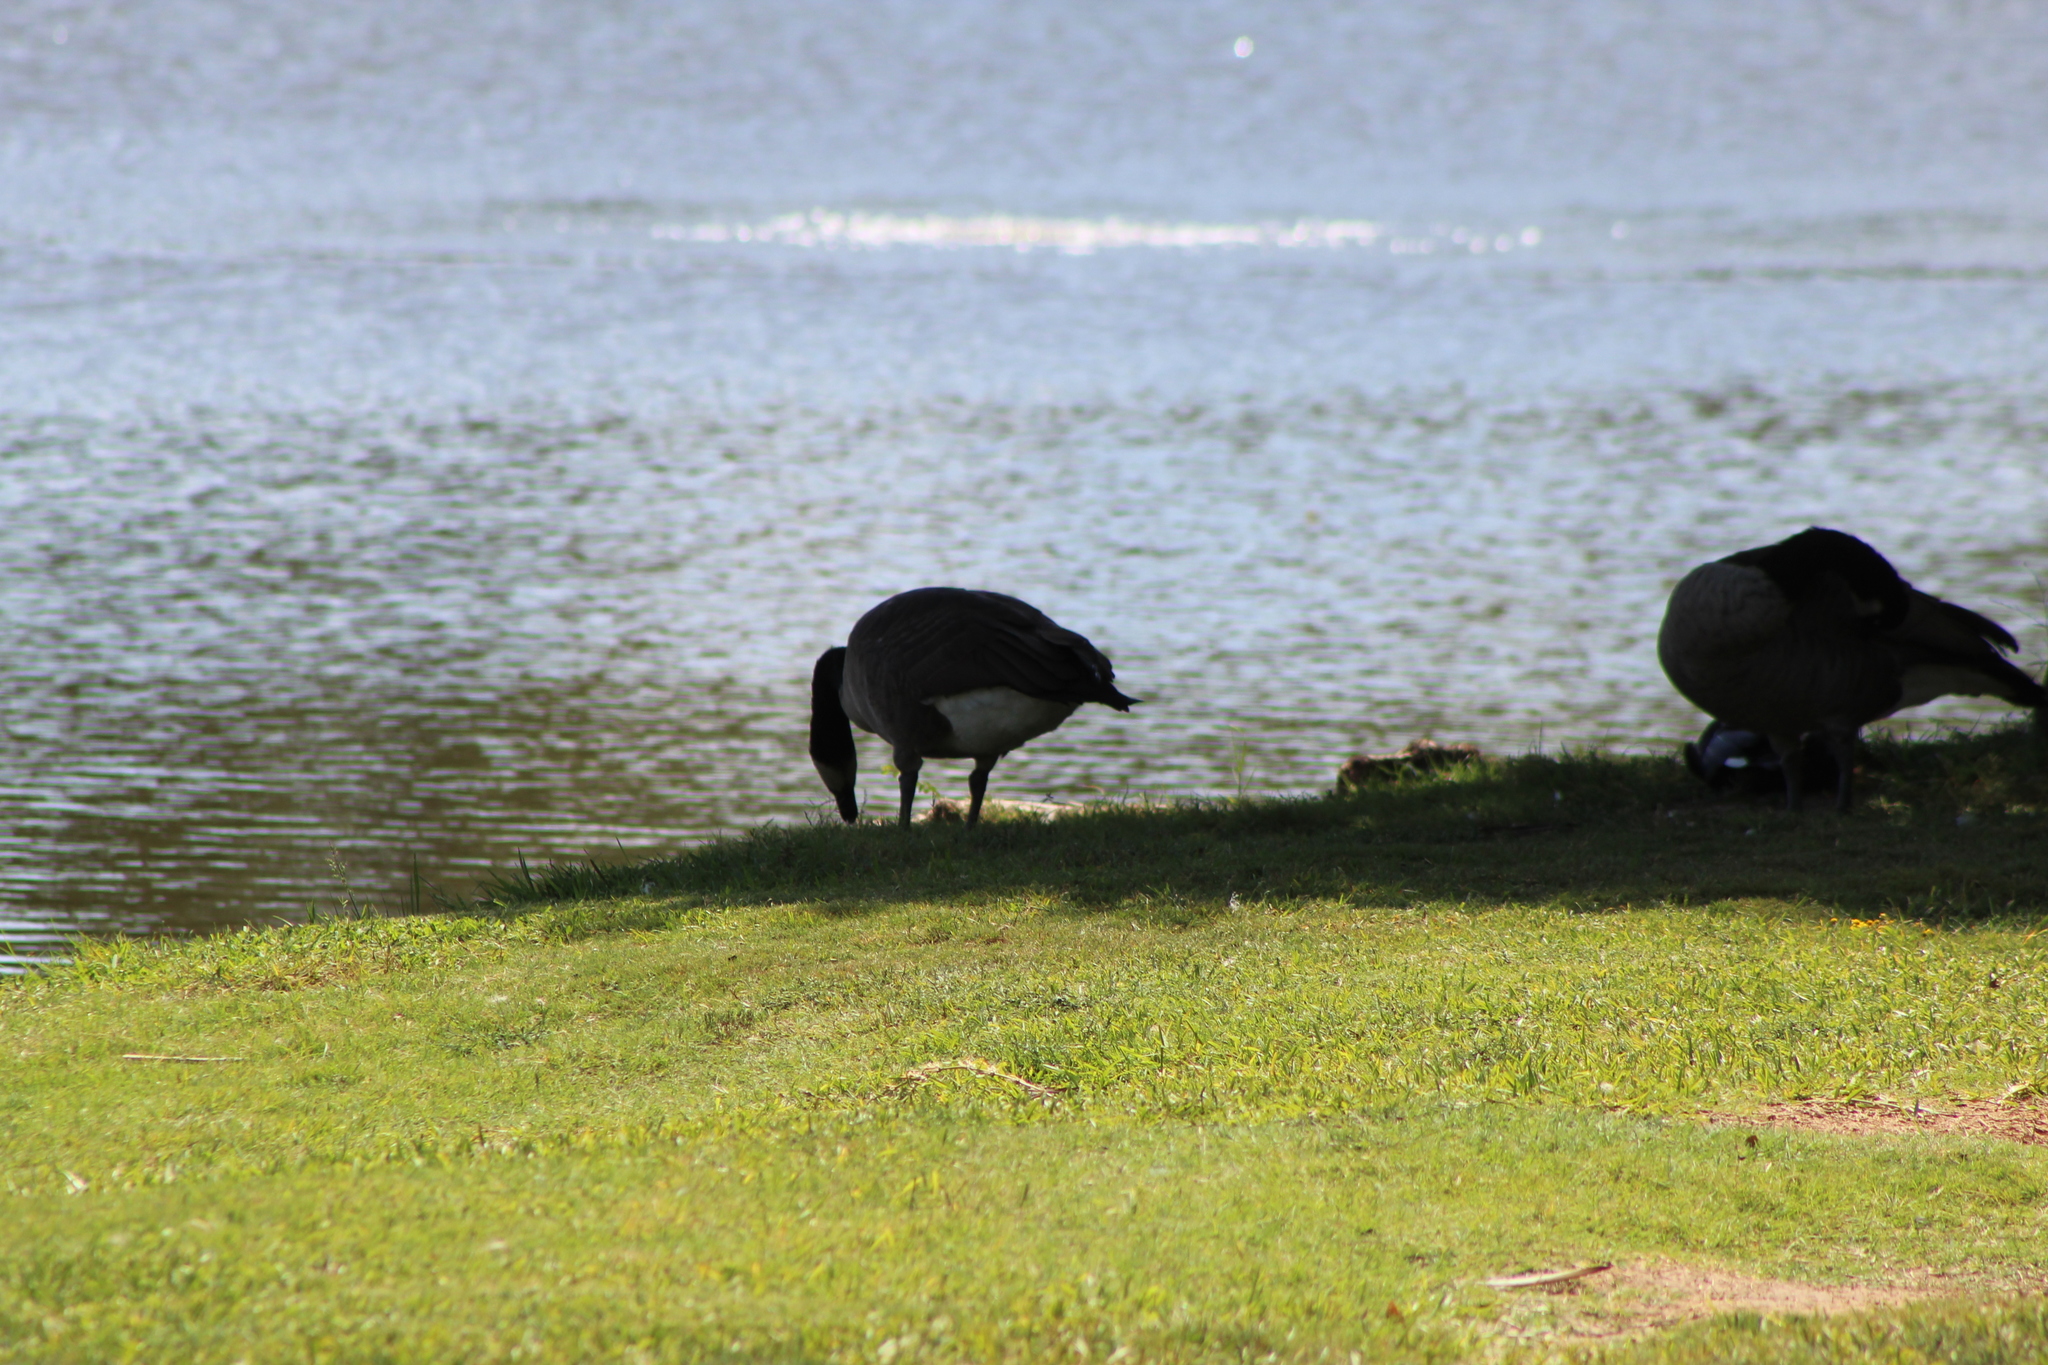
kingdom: Animalia
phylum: Chordata
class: Aves
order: Anseriformes
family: Anatidae
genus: Branta
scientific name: Branta canadensis
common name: Canada goose
